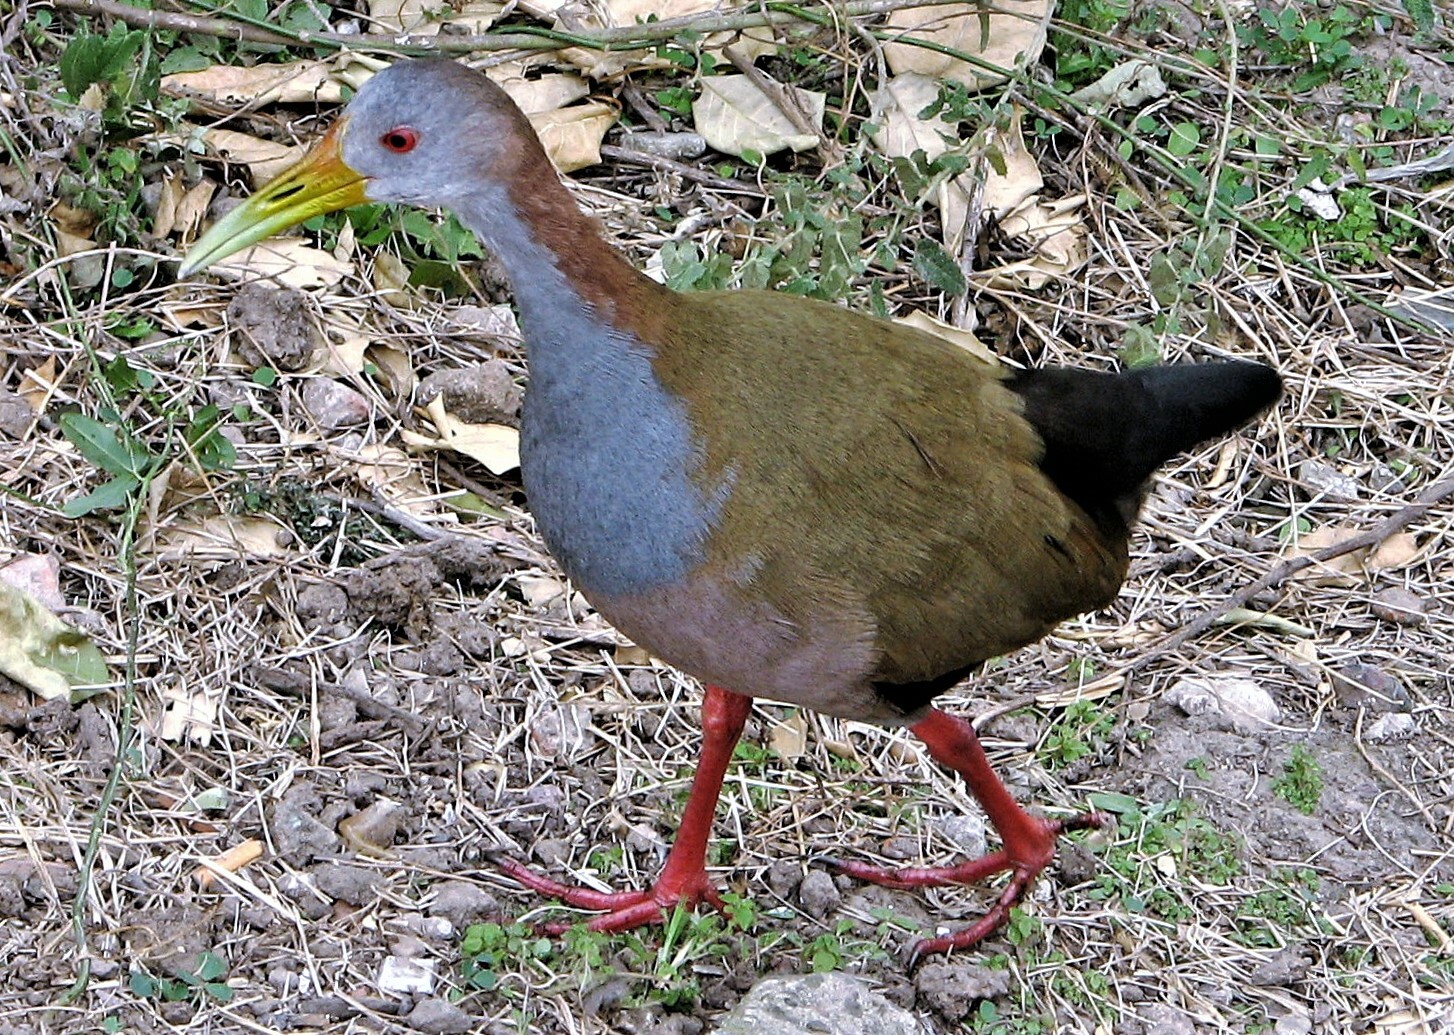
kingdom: Animalia
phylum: Chordata
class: Aves
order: Gruiformes
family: Rallidae
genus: Aramides
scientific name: Aramides ypecaha
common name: Giant wood rail
